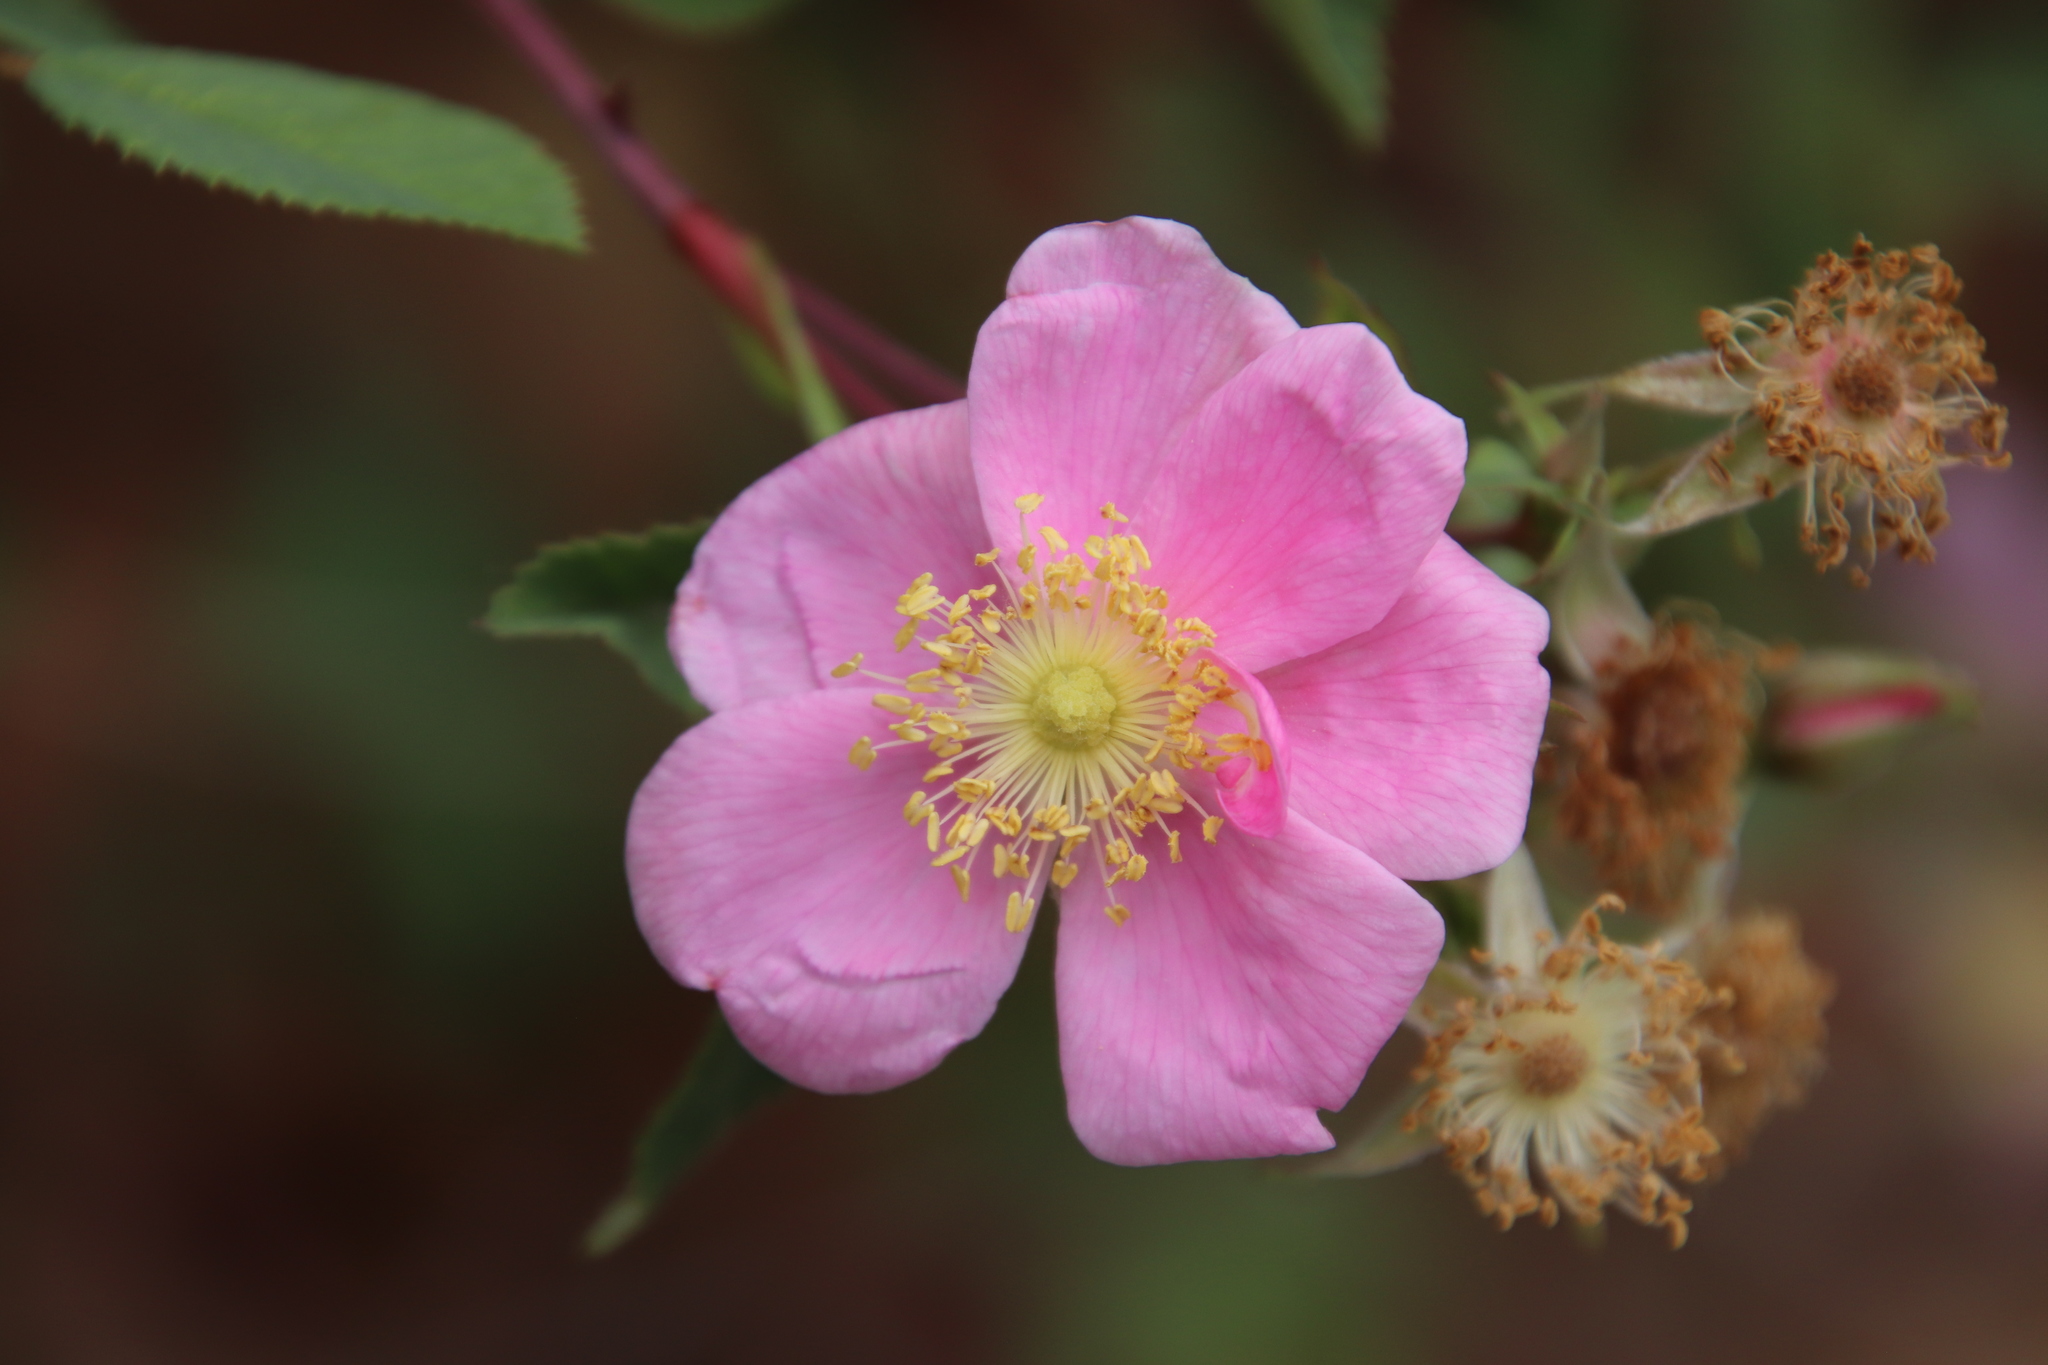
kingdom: Plantae
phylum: Tracheophyta
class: Magnoliopsida
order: Rosales
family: Rosaceae
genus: Rosa
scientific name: Rosa californica
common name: California rose
